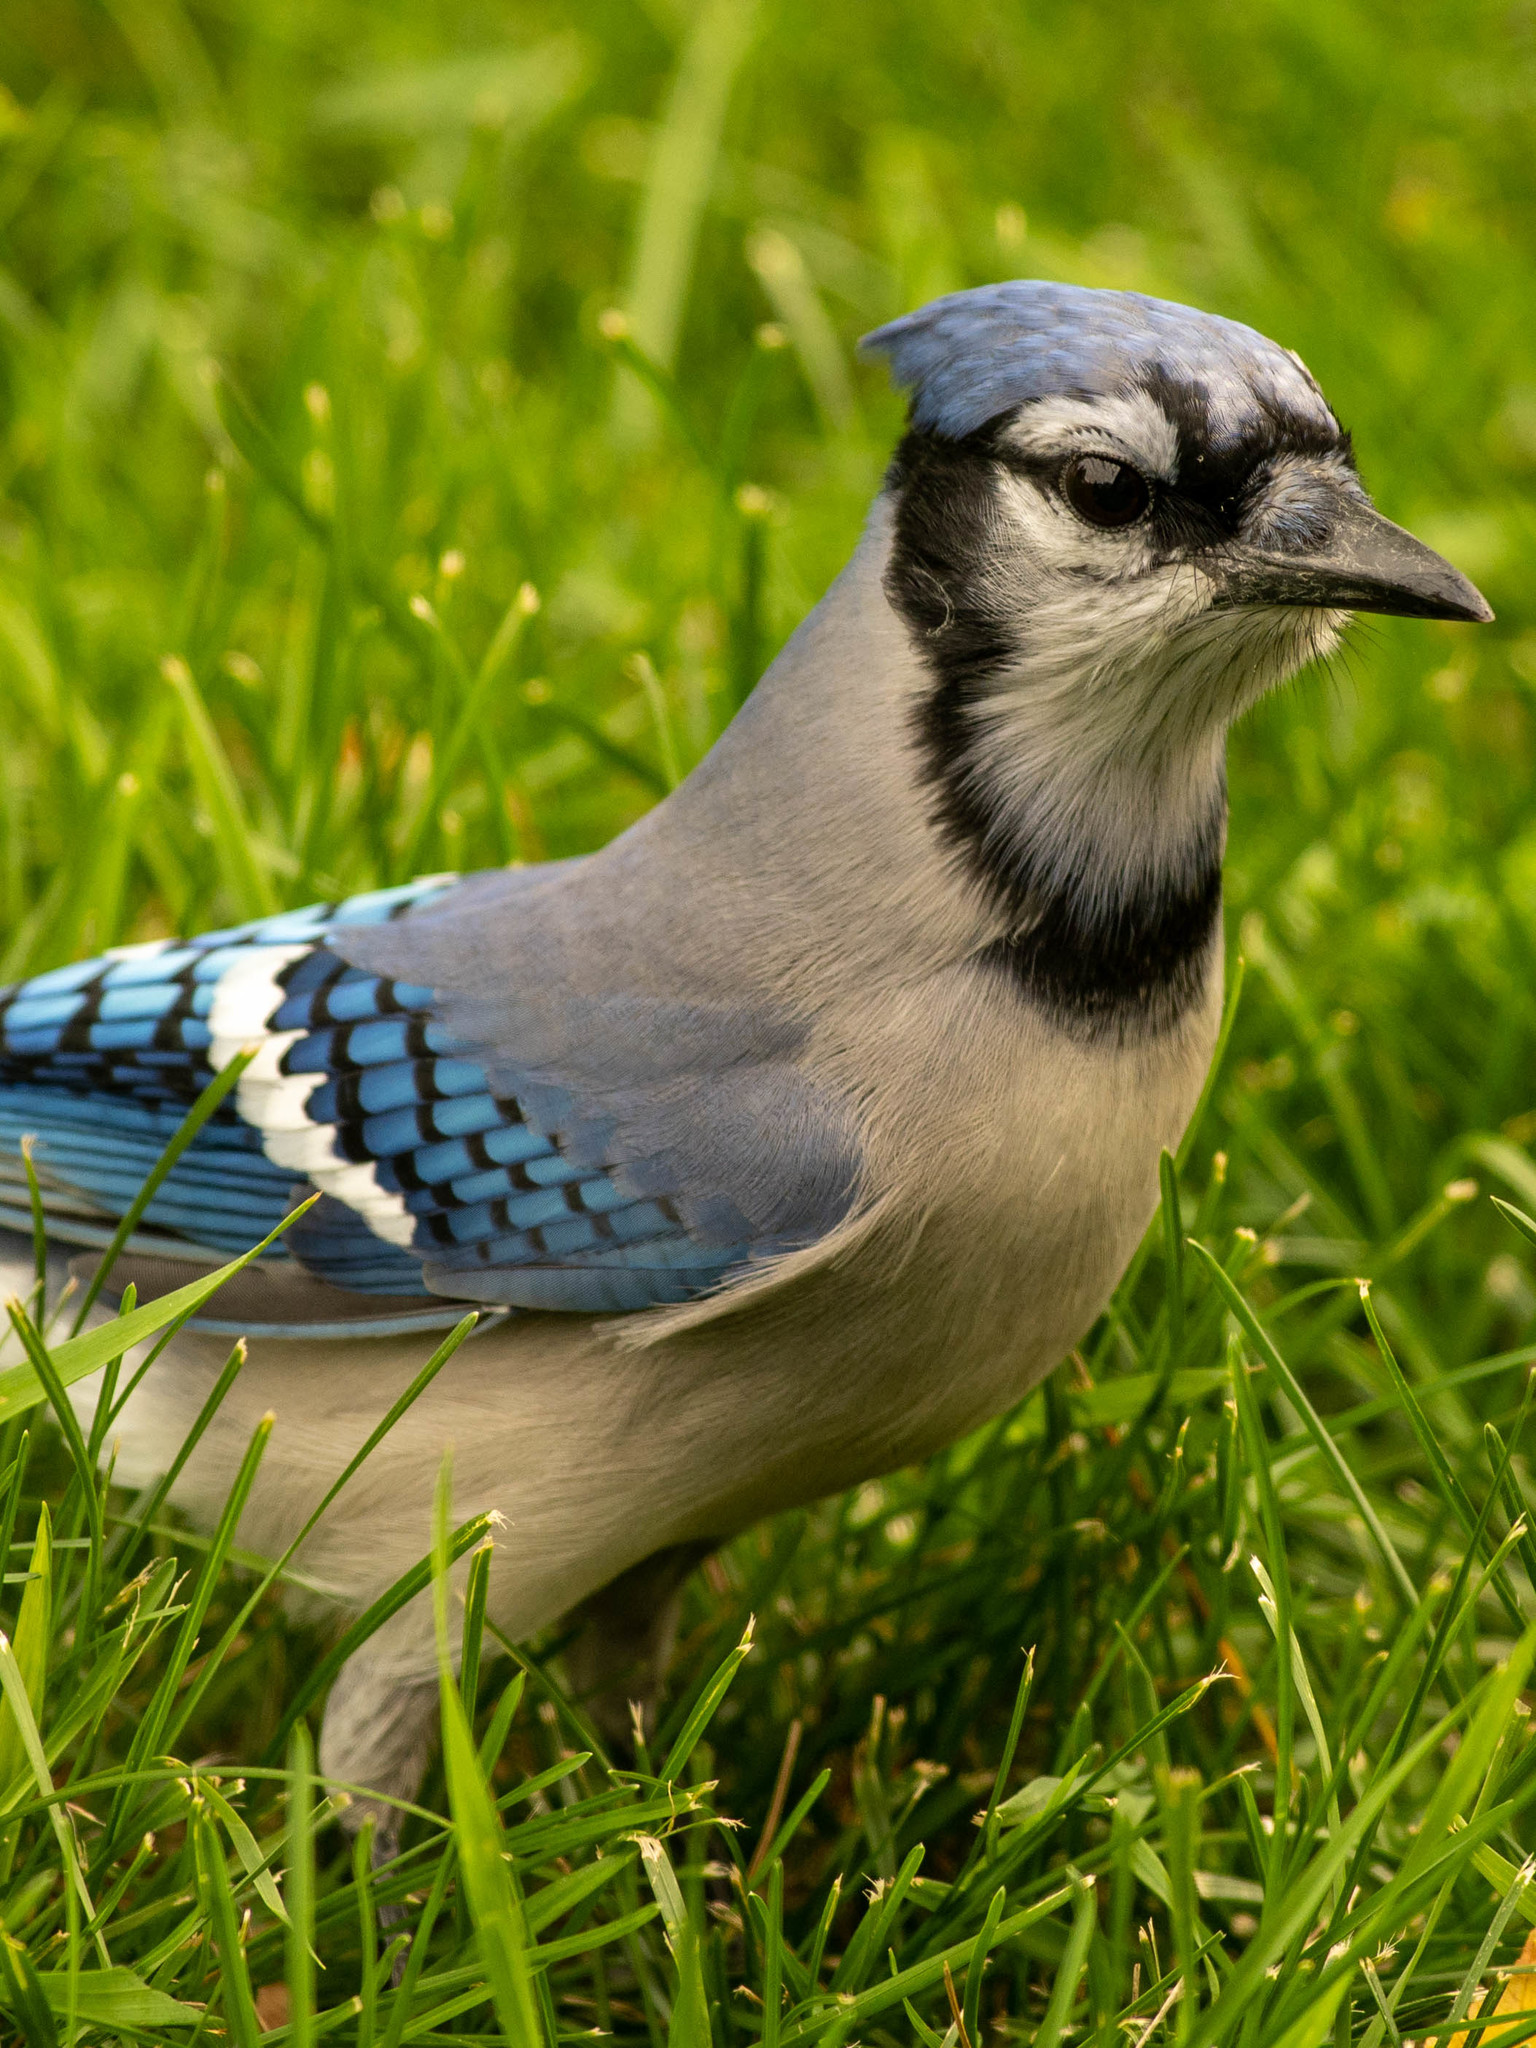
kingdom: Animalia
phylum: Chordata
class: Aves
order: Passeriformes
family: Corvidae
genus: Cyanocitta
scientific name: Cyanocitta cristata
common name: Blue jay
